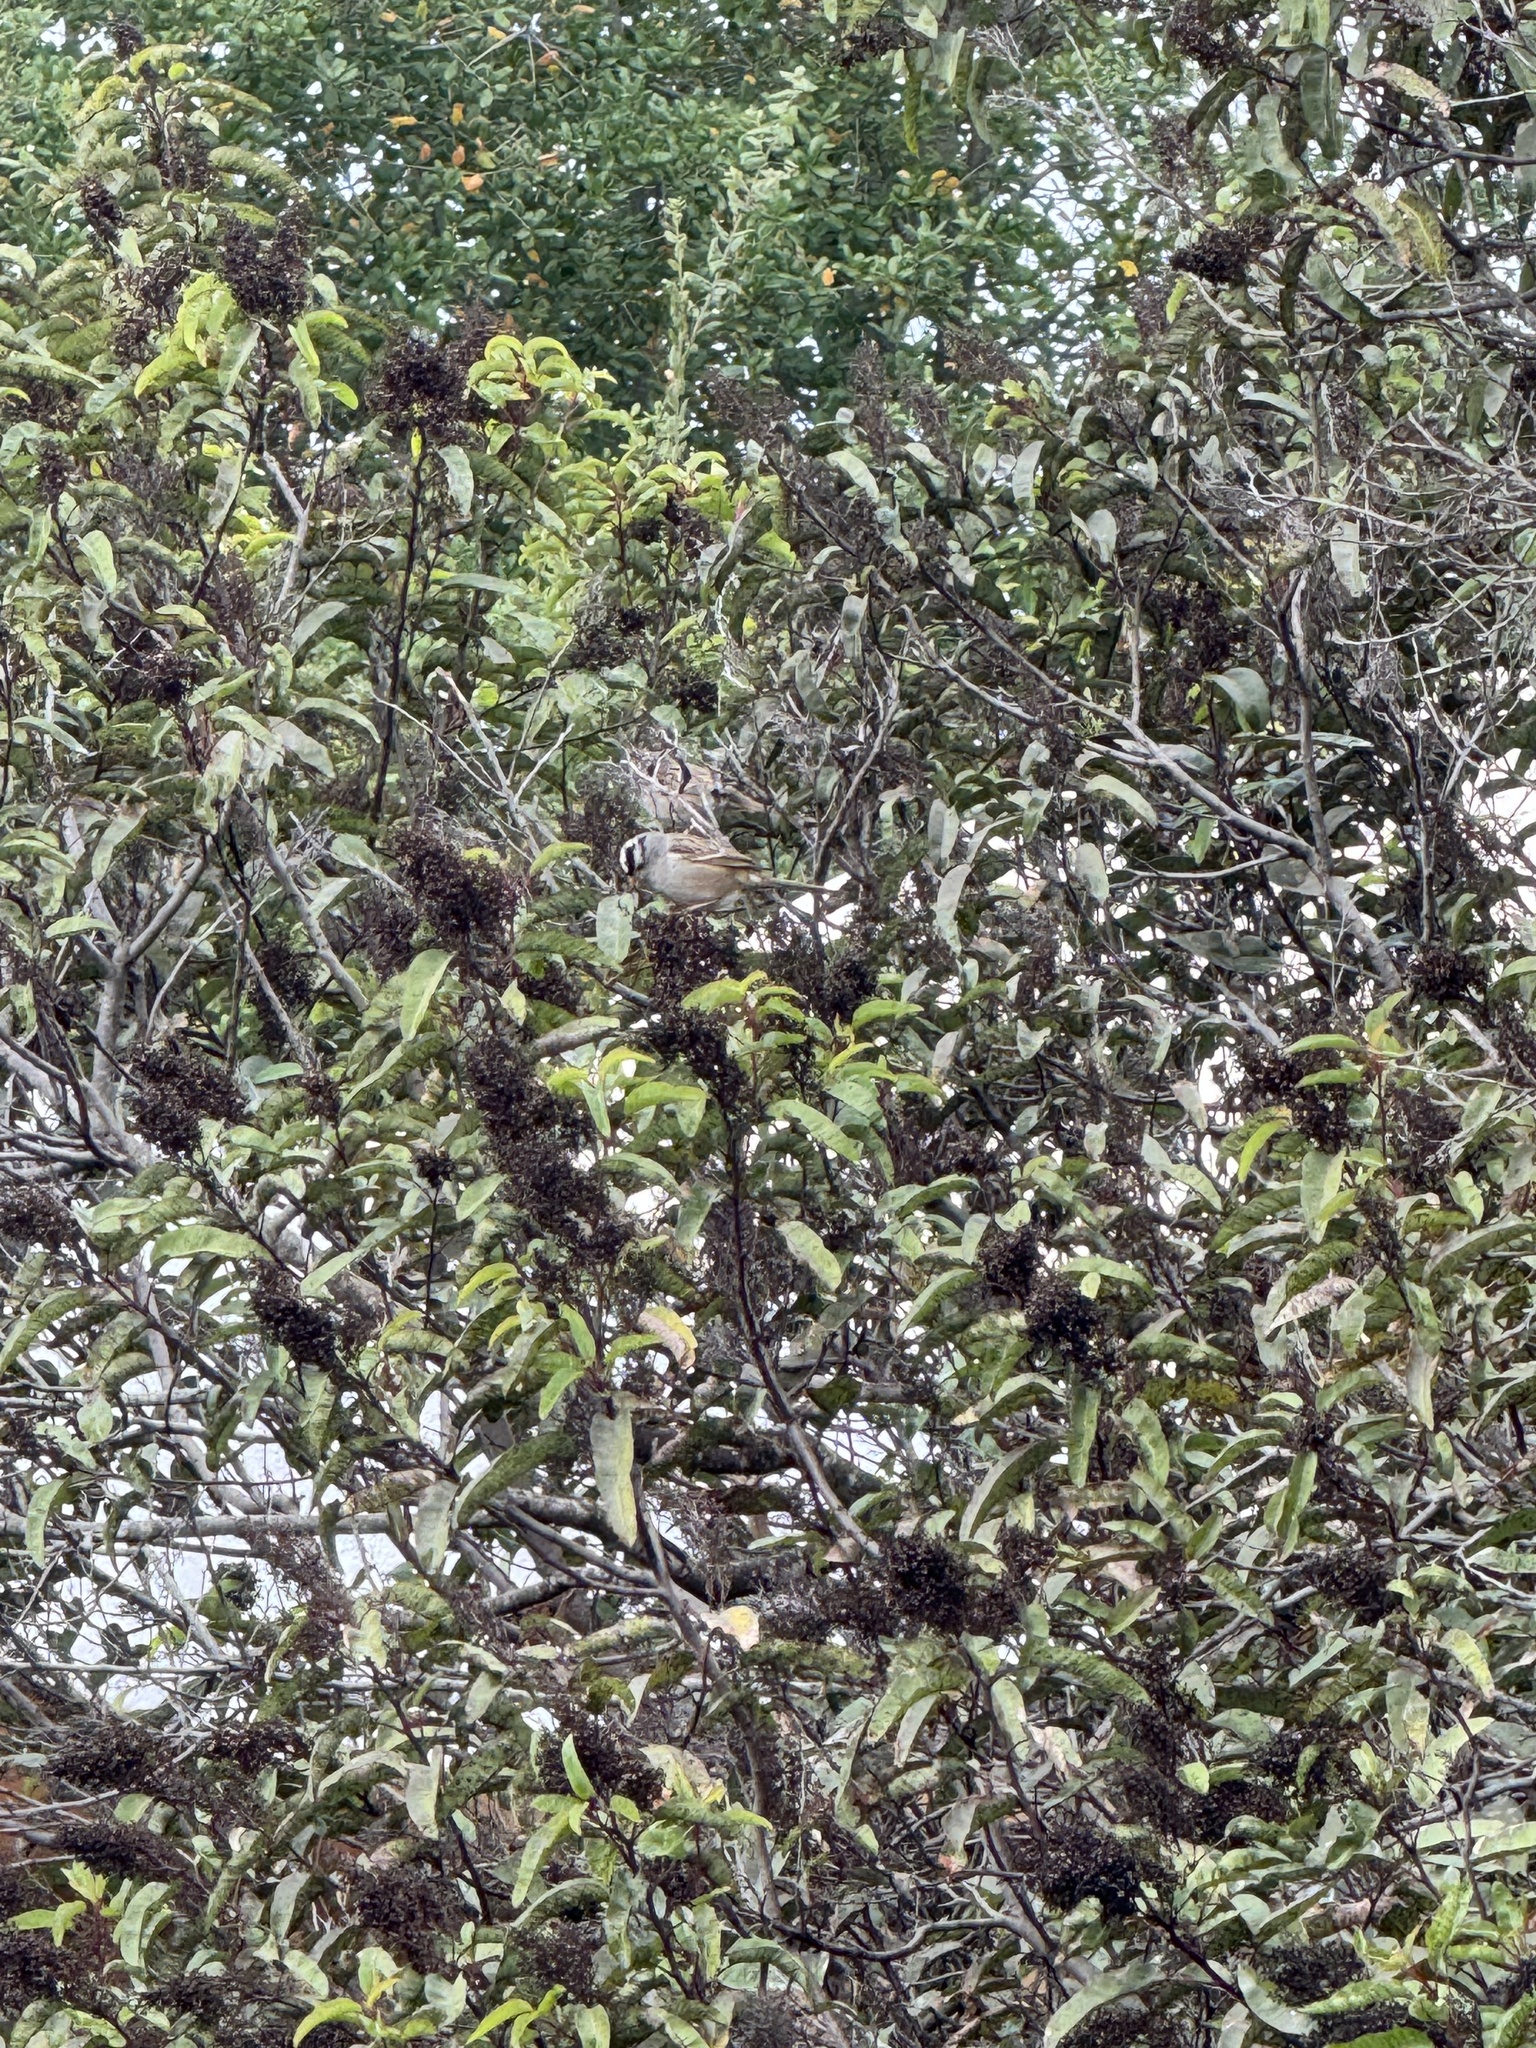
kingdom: Animalia
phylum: Chordata
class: Aves
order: Passeriformes
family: Passerellidae
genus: Zonotrichia
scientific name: Zonotrichia leucophrys
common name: White-crowned sparrow
